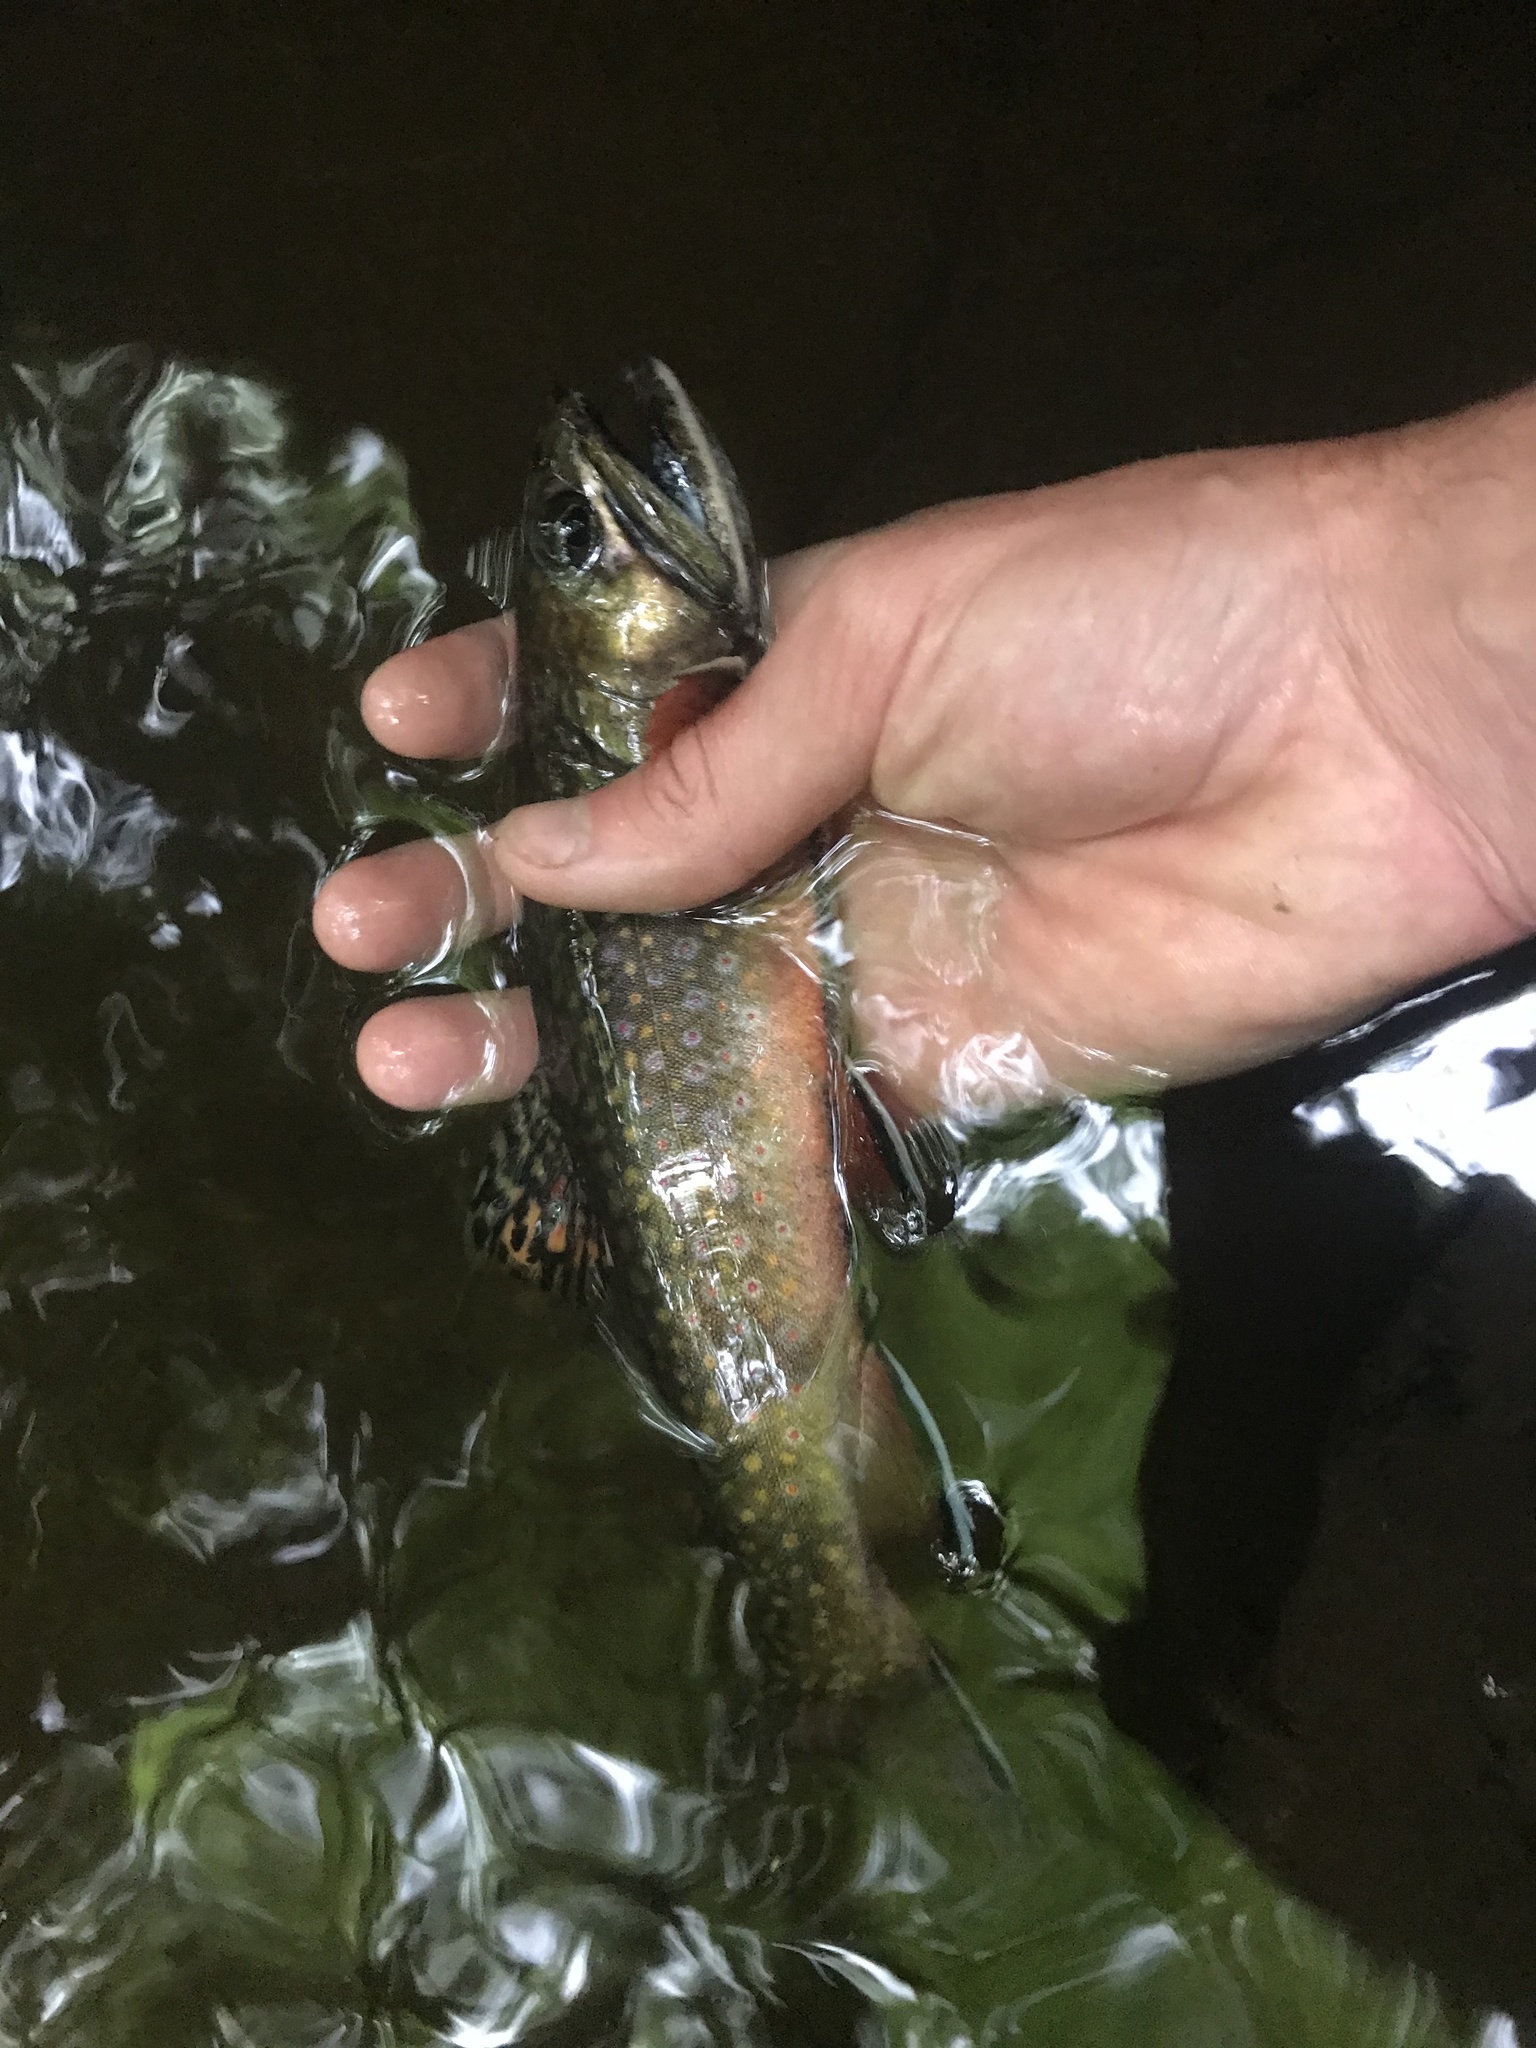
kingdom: Animalia
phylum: Chordata
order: Salmoniformes
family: Salmonidae
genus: Salvelinus
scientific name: Salvelinus fontinalis
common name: Brook trout
